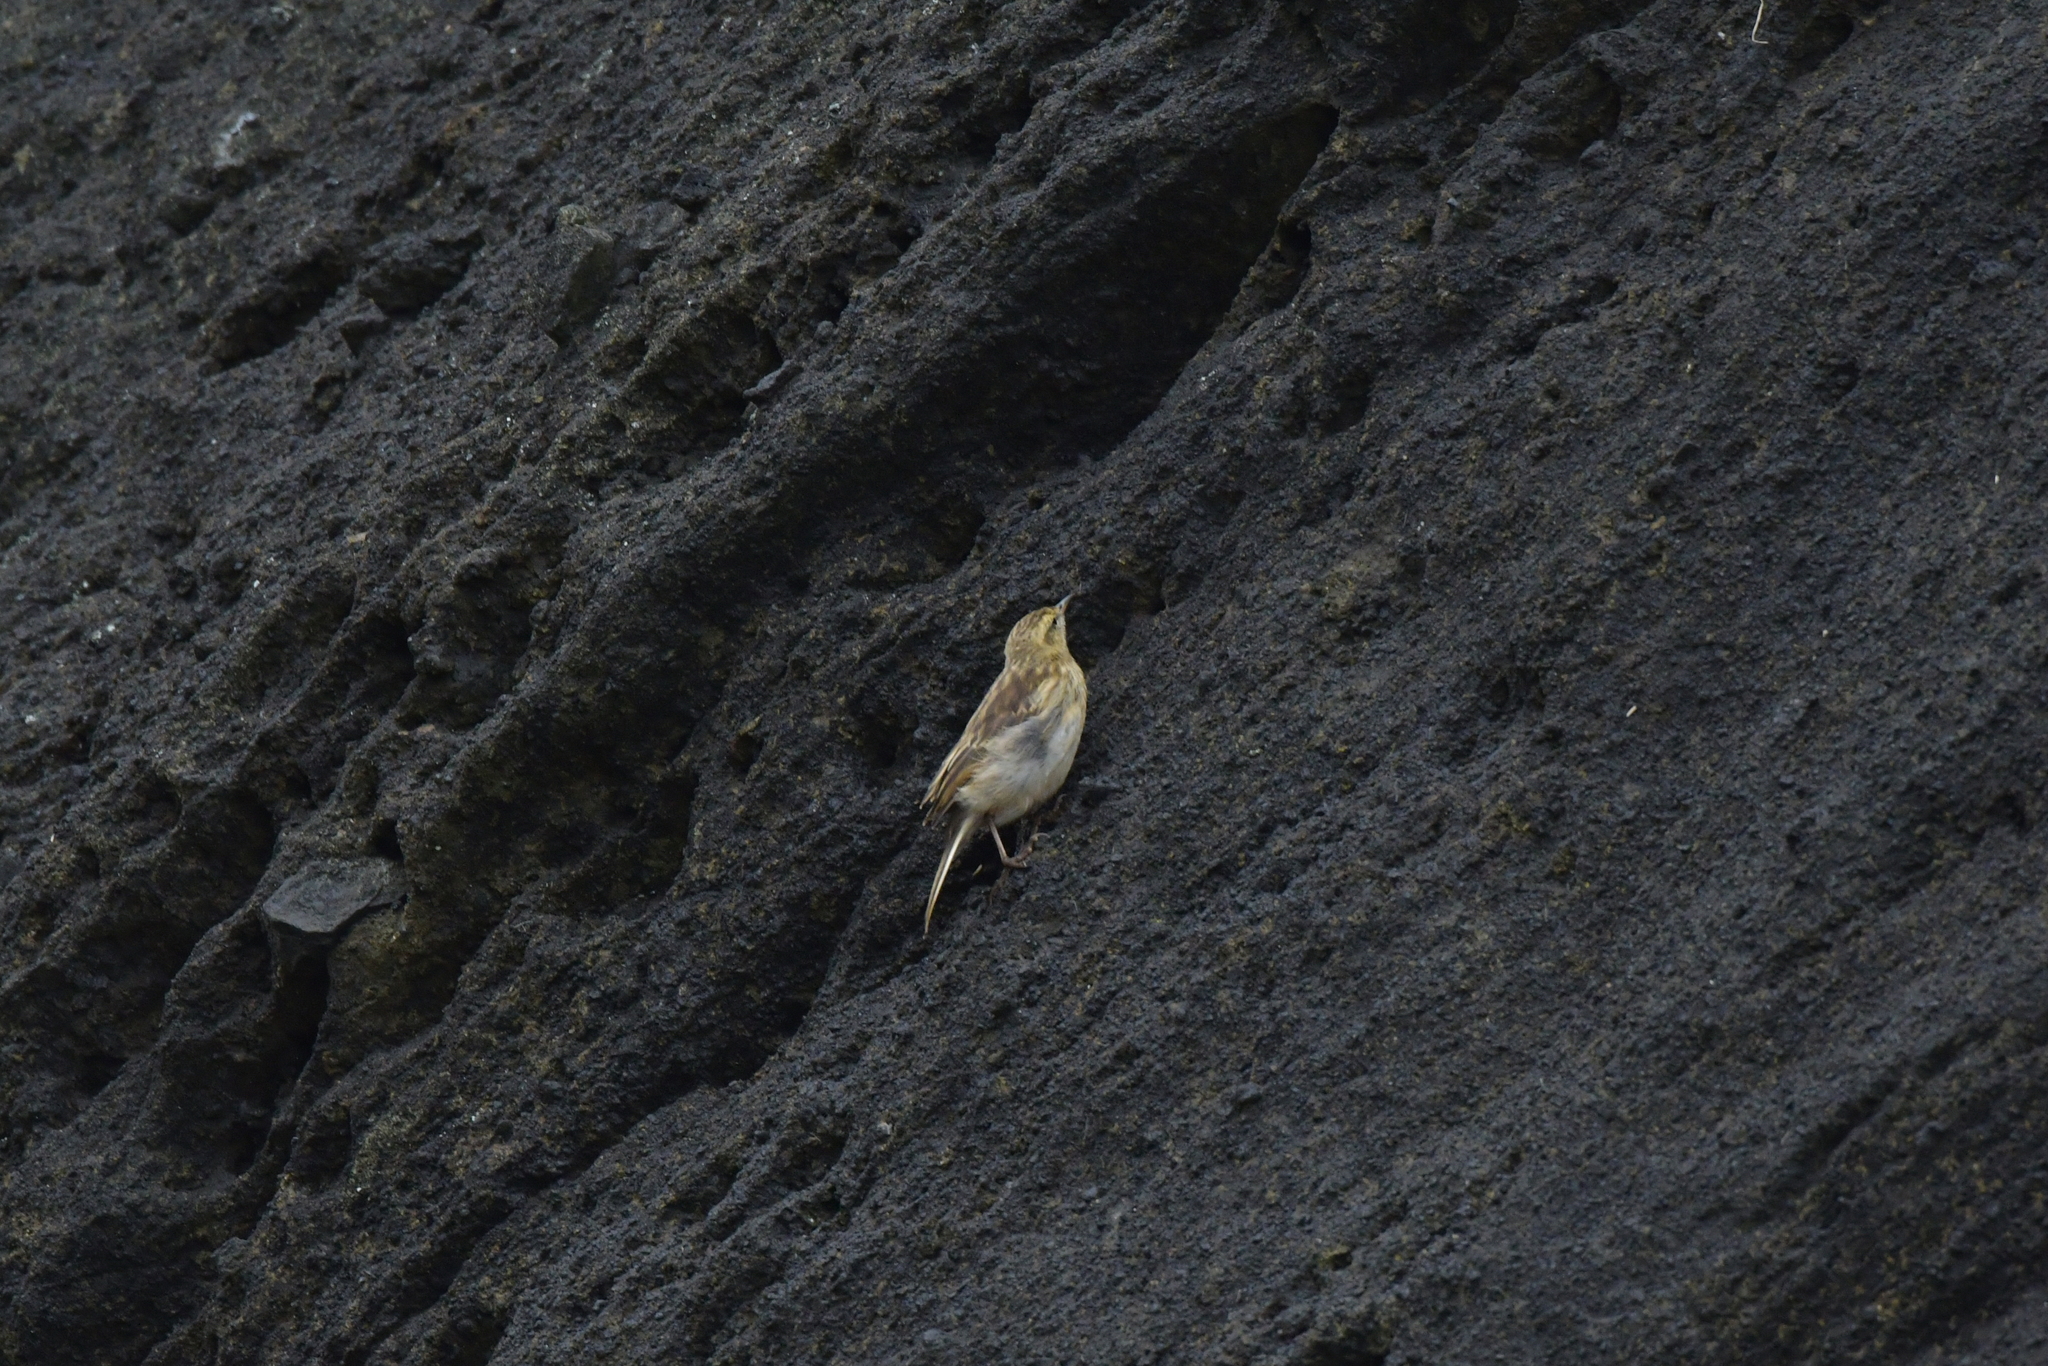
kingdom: Animalia
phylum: Chordata
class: Aves
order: Passeriformes
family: Motacillidae
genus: Anthus
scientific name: Anthus novaeseelandiae
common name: New zealand pipit
